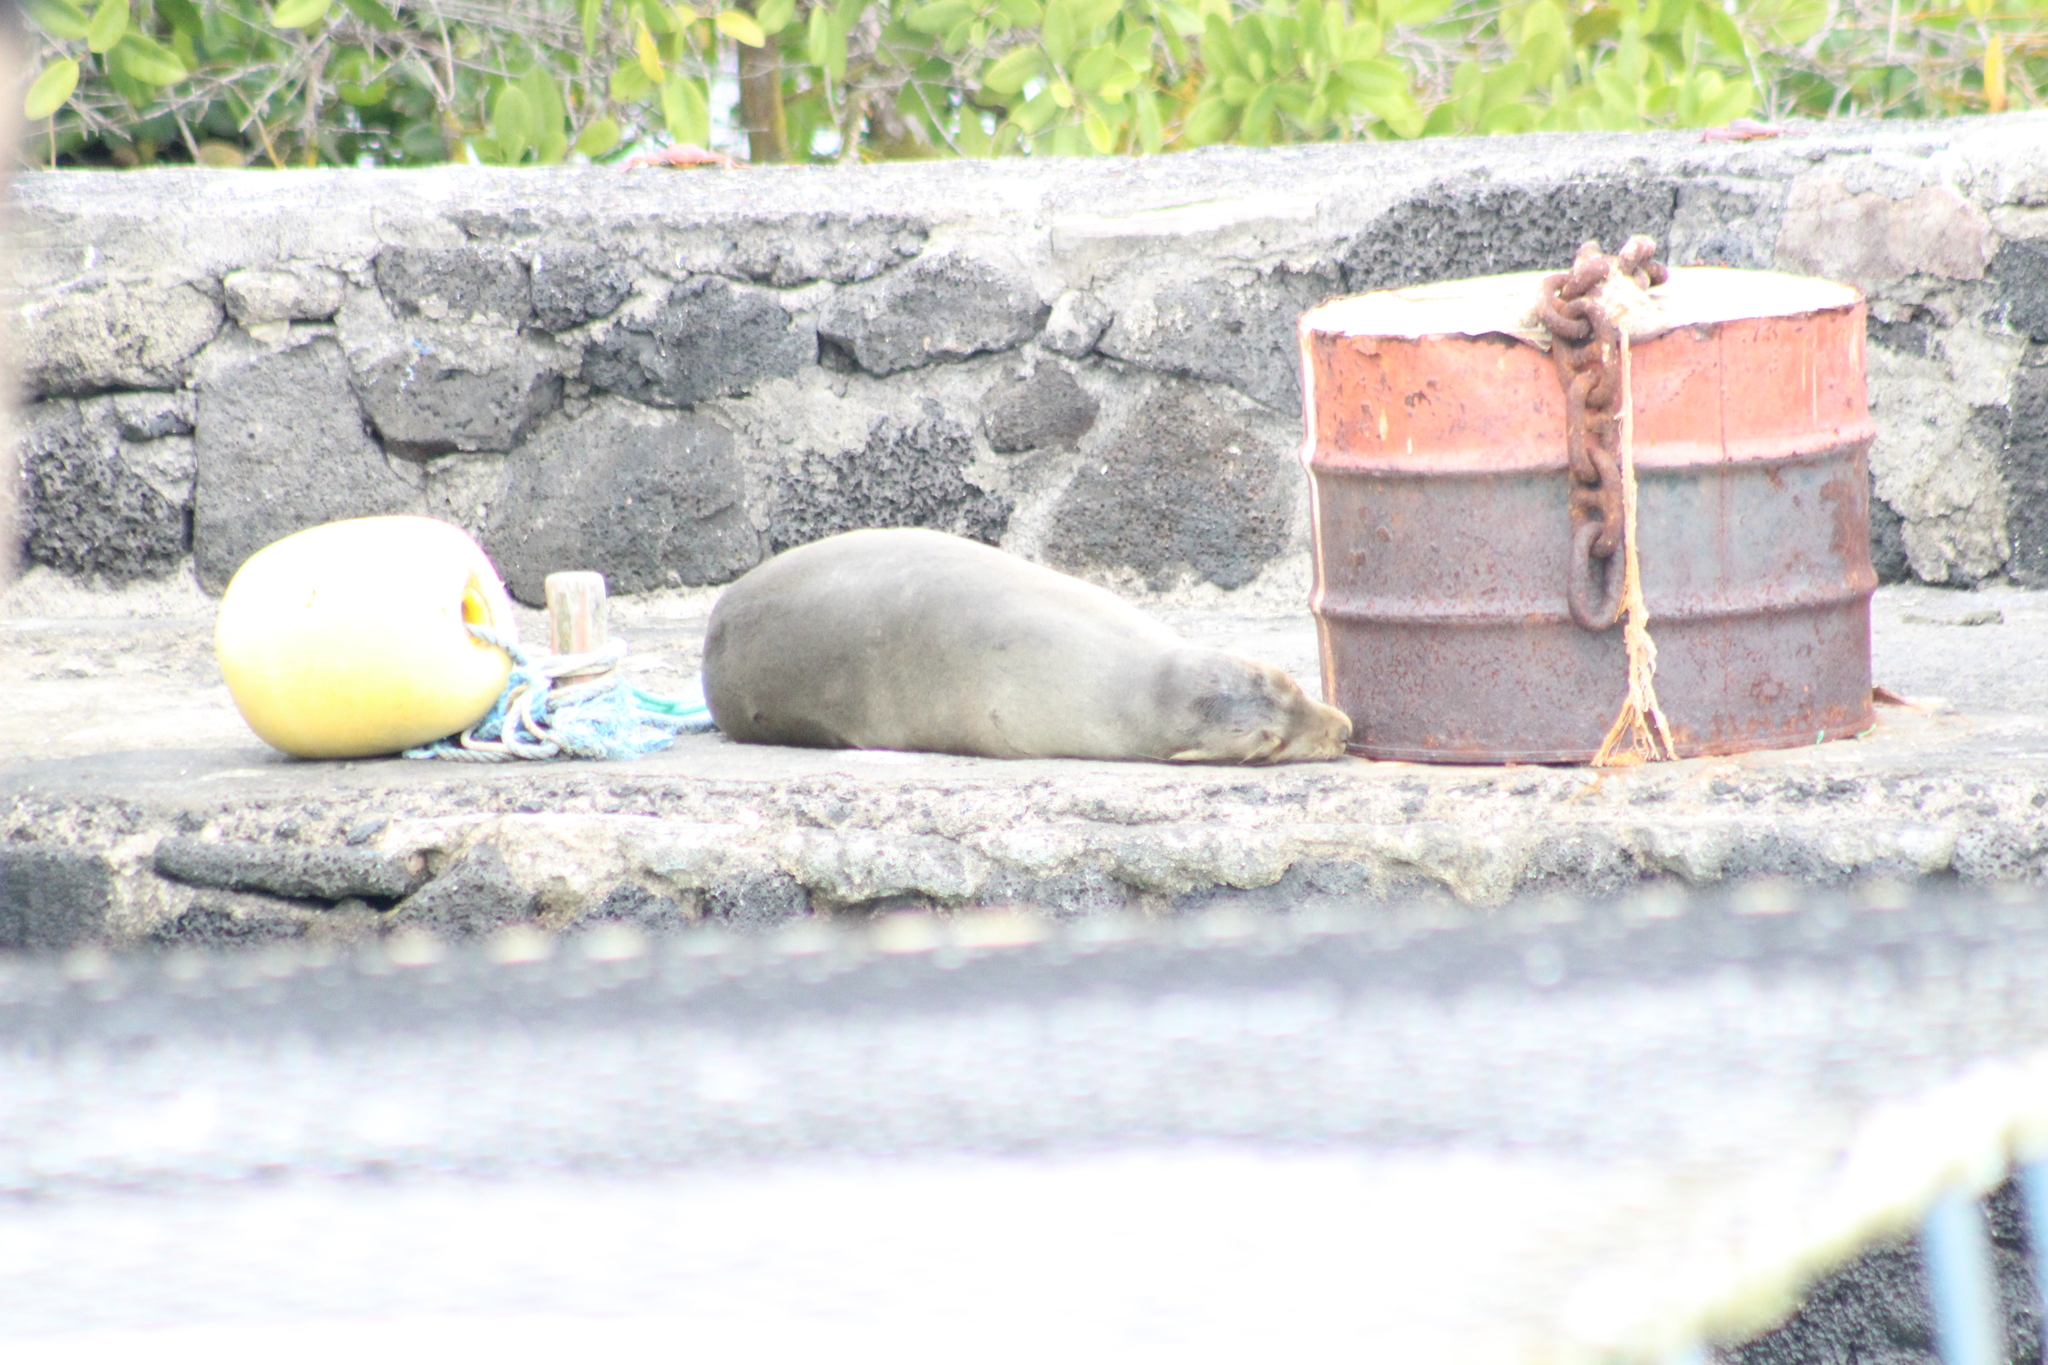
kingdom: Animalia
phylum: Chordata
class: Mammalia
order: Carnivora
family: Otariidae
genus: Zalophus
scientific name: Zalophus wollebaeki
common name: Galapagos sea lion
